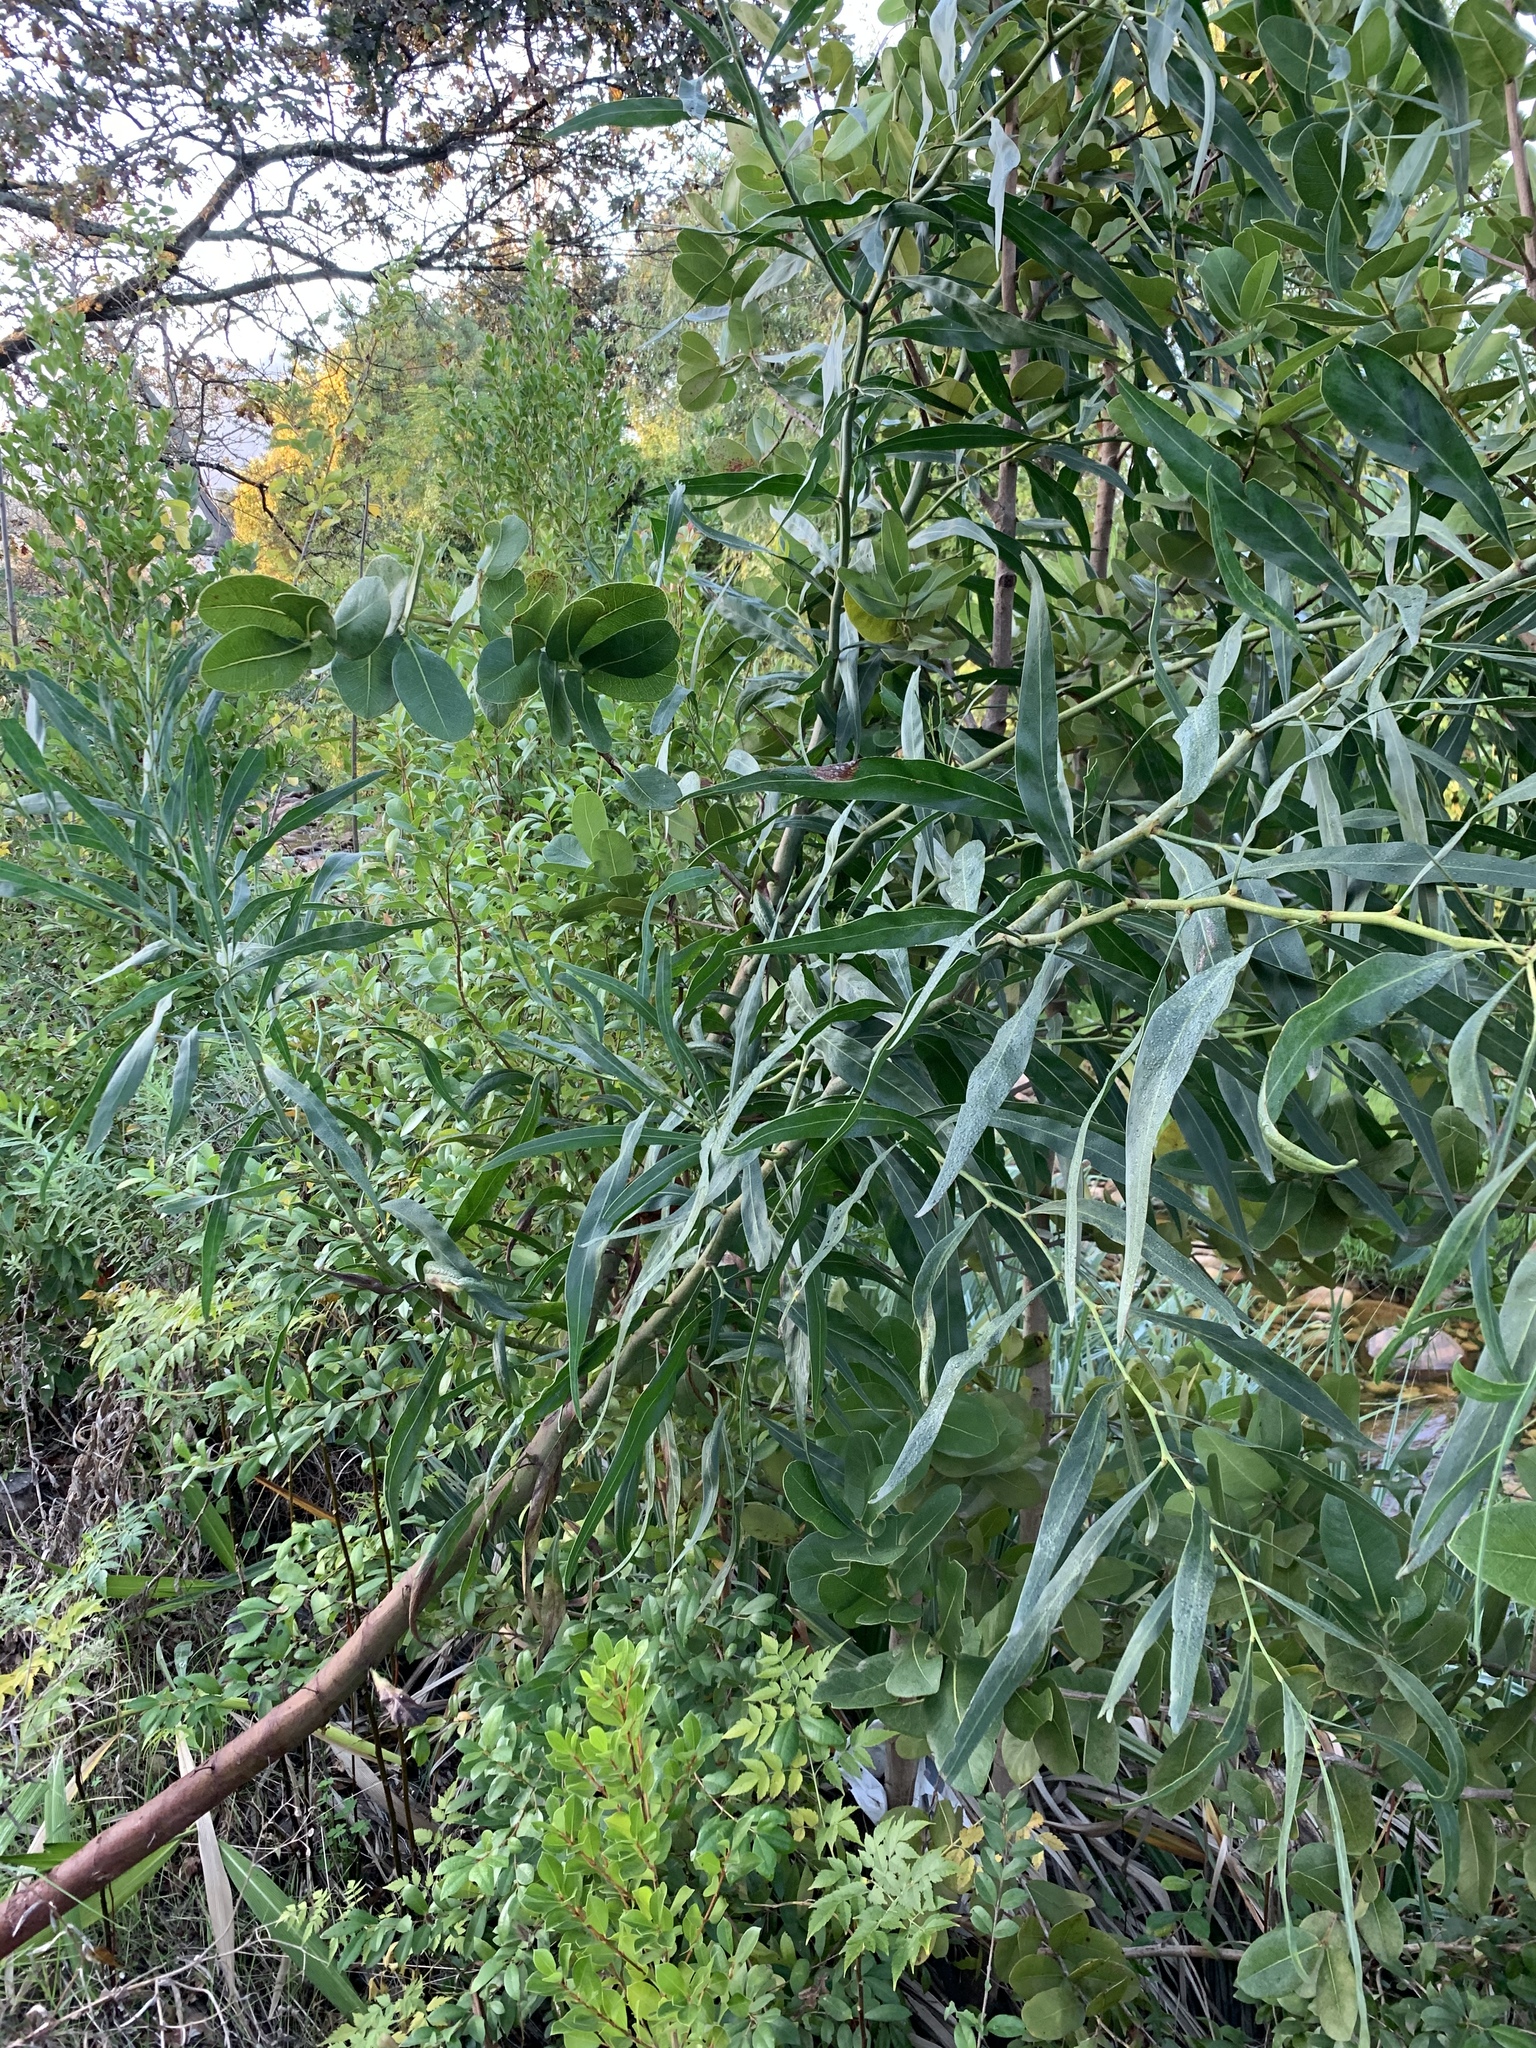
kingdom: Plantae
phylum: Tracheophyta
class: Magnoliopsida
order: Fabales
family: Fabaceae
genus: Acacia
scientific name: Acacia saligna
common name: Orange wattle
